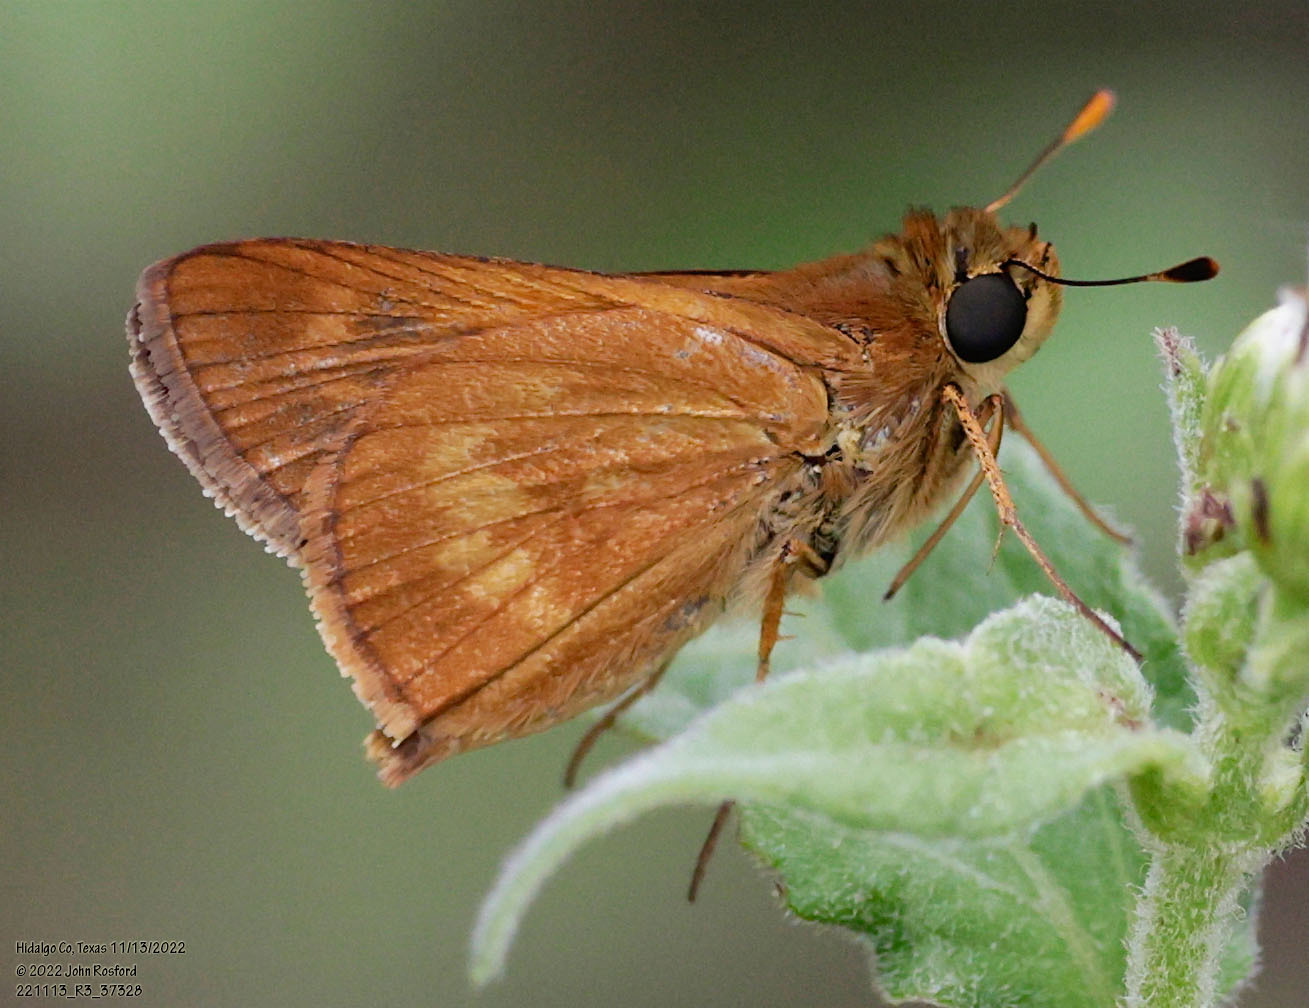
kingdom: Animalia
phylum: Arthropoda
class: Insecta
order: Lepidoptera
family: Hesperiidae
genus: Polites
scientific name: Polites otho
